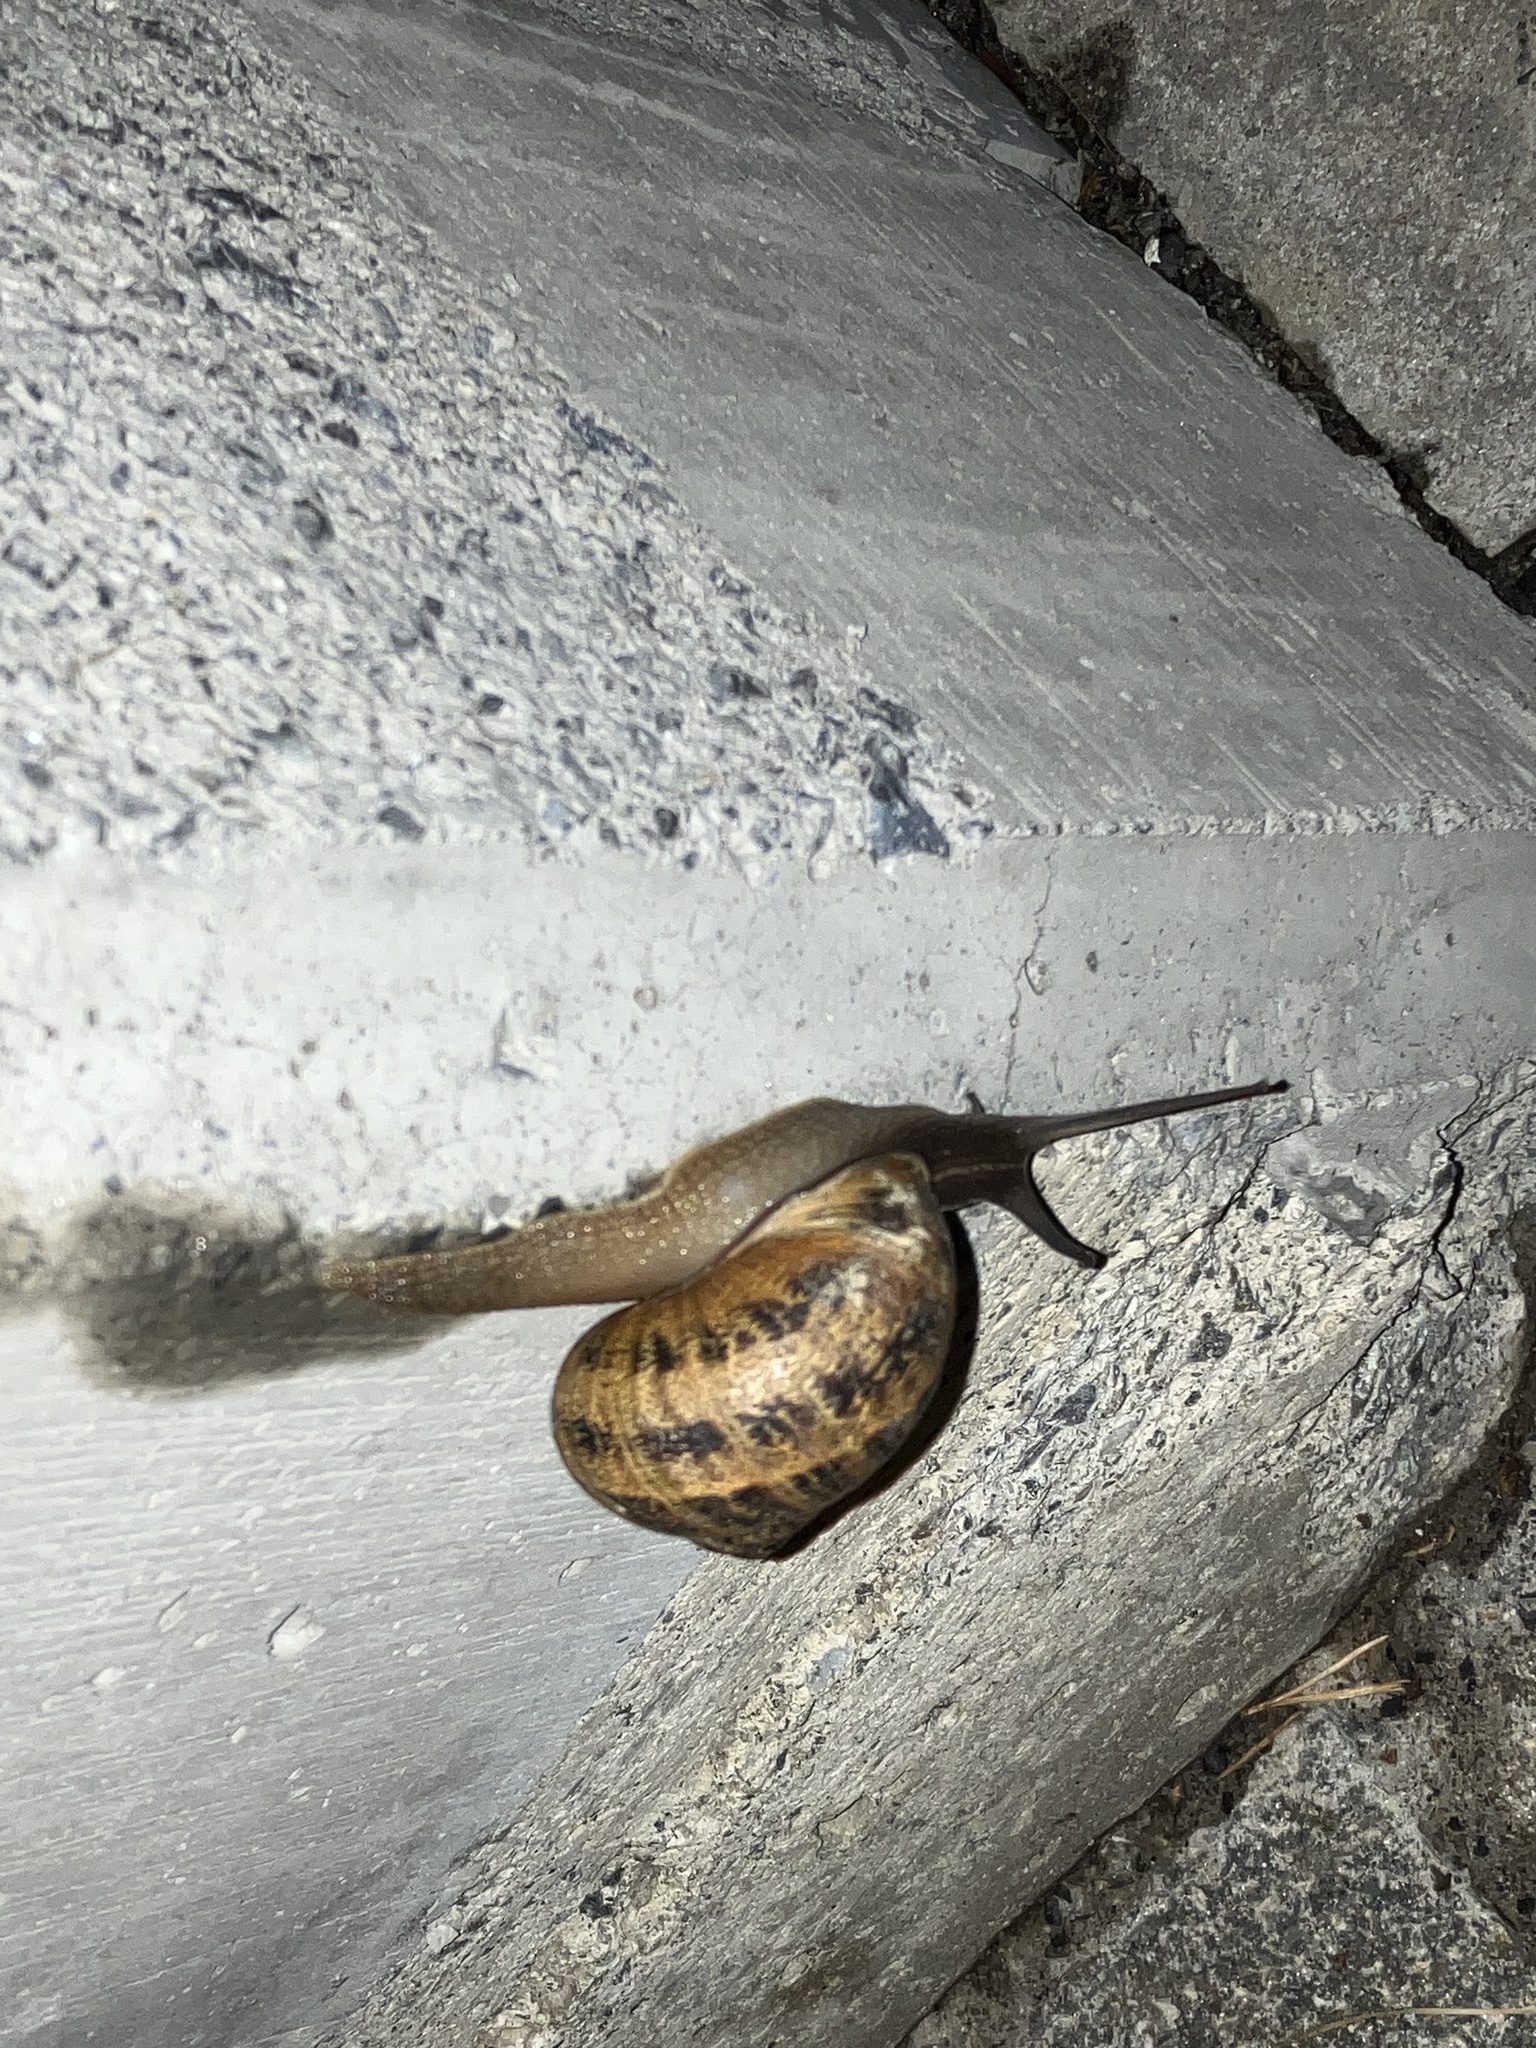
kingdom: Animalia
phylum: Mollusca
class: Gastropoda
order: Stylommatophora
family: Helicidae
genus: Cornu
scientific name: Cornu aspersum
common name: Brown garden snail
